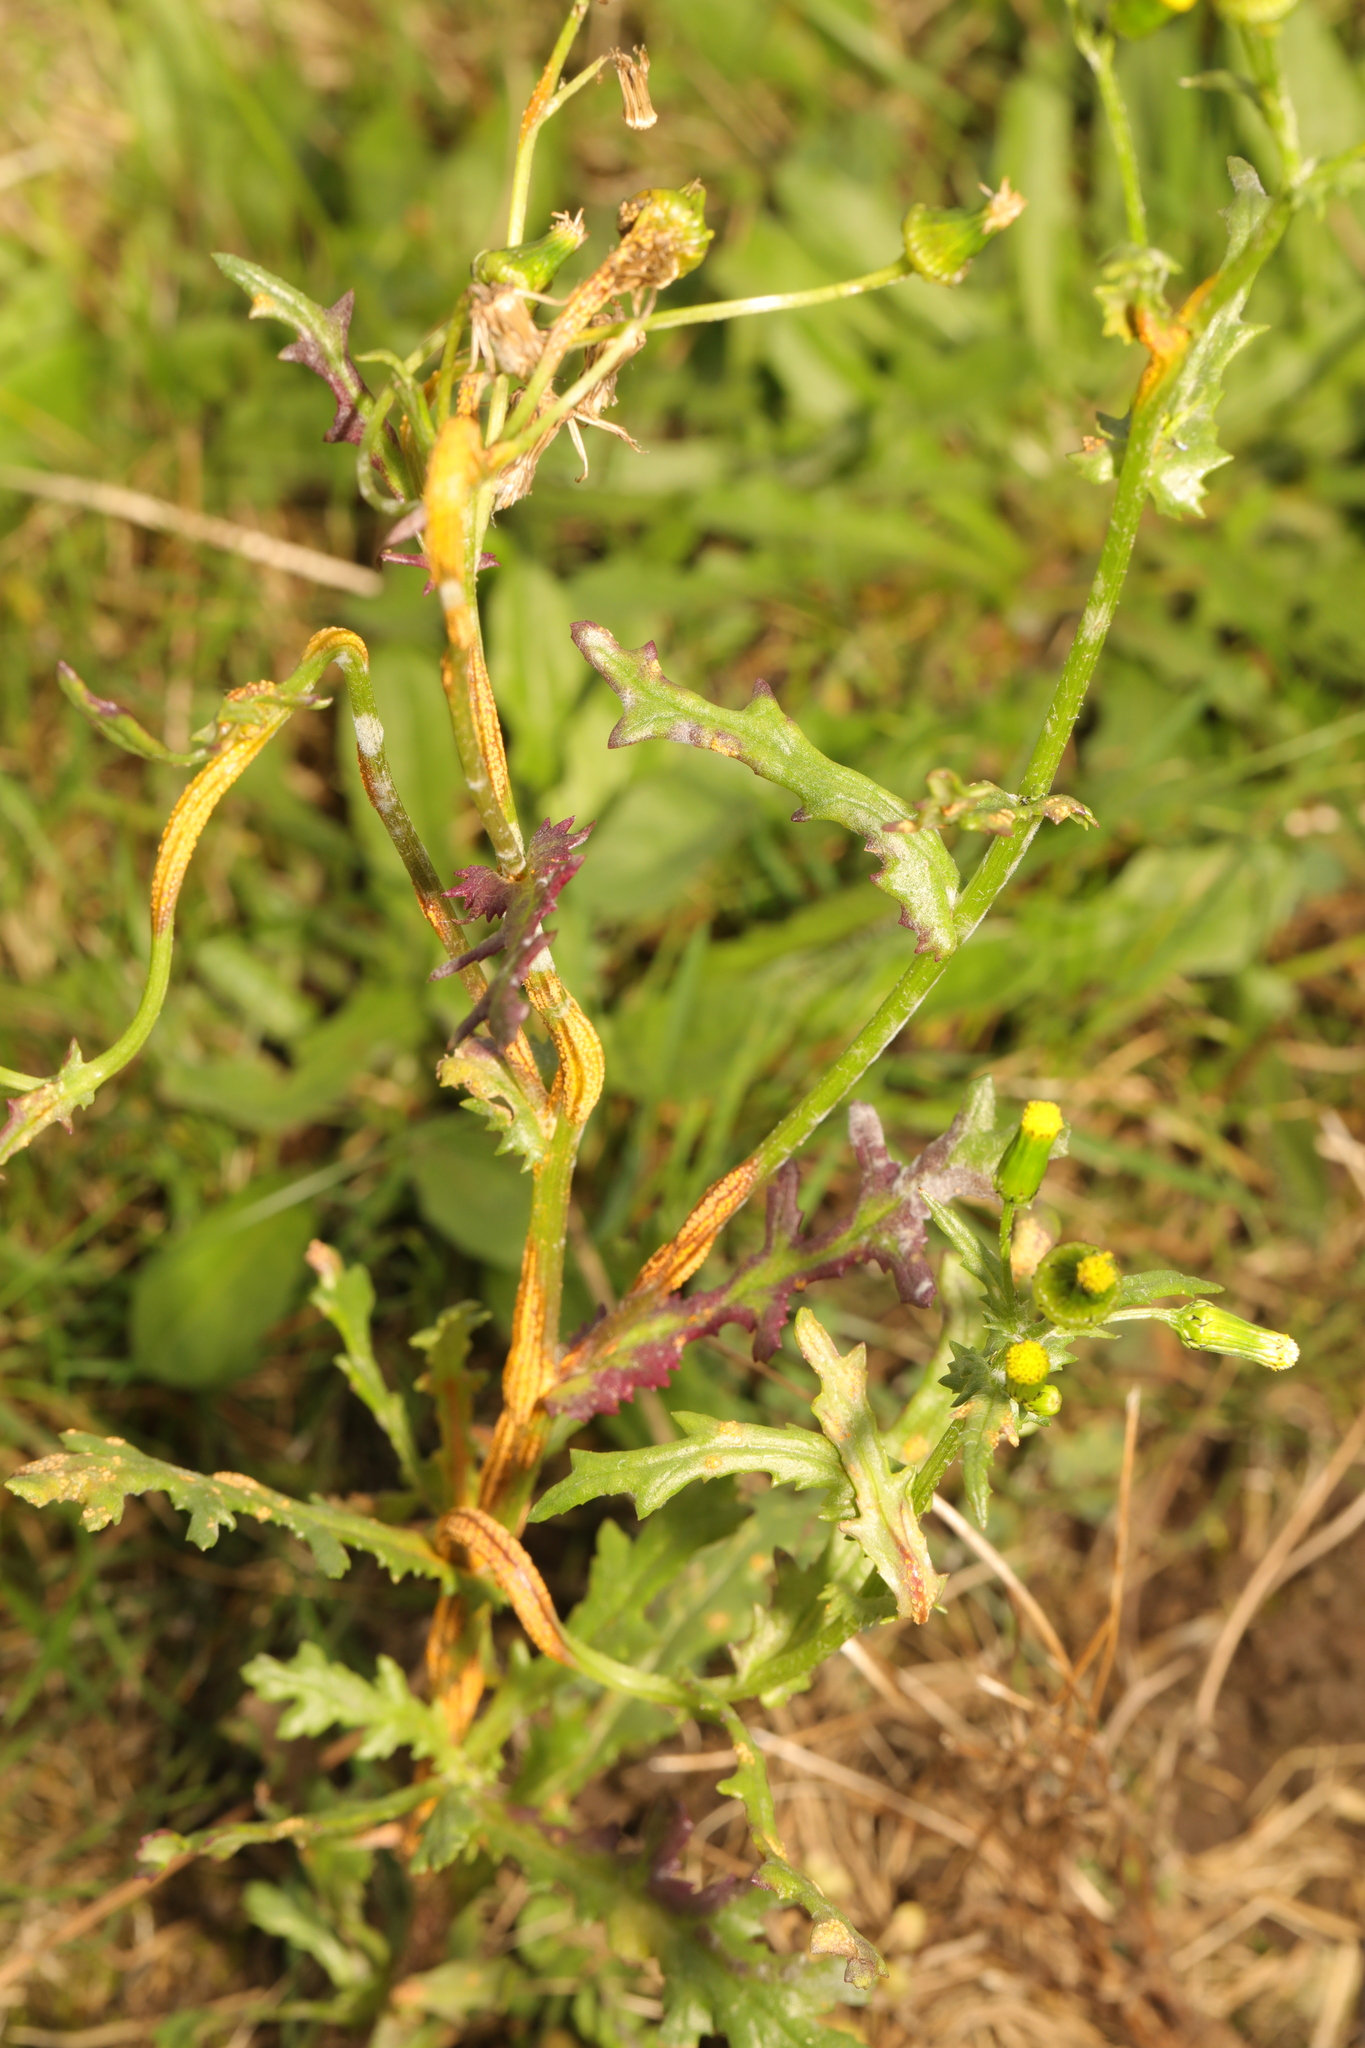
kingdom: Plantae
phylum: Tracheophyta
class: Magnoliopsida
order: Asterales
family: Asteraceae
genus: Senecio
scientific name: Senecio vulgaris
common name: Old-man-in-the-spring
